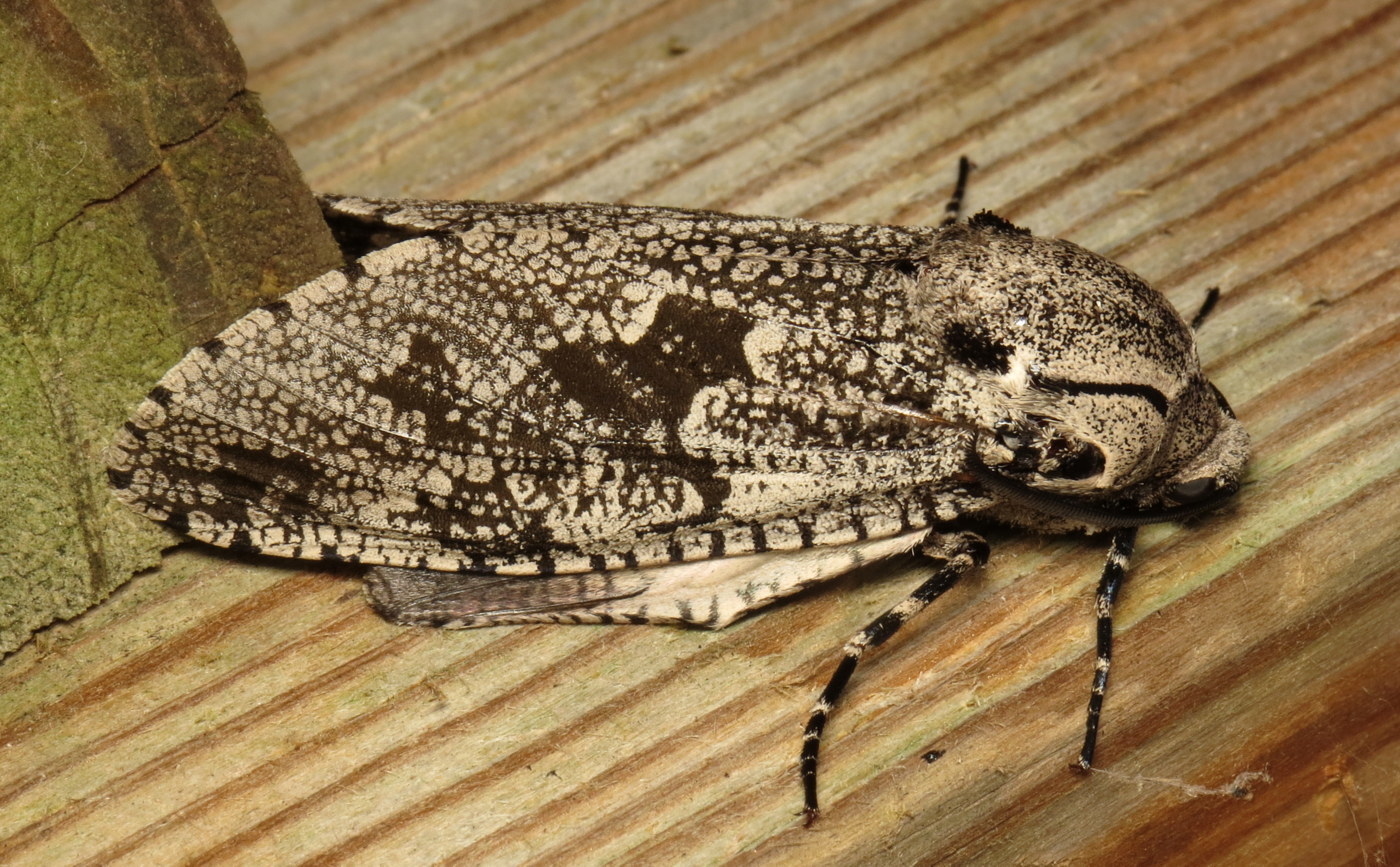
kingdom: Animalia
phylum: Arthropoda
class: Insecta
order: Lepidoptera
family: Cossidae
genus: Prionoxystus
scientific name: Prionoxystus robiniae
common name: Carpenterworm
